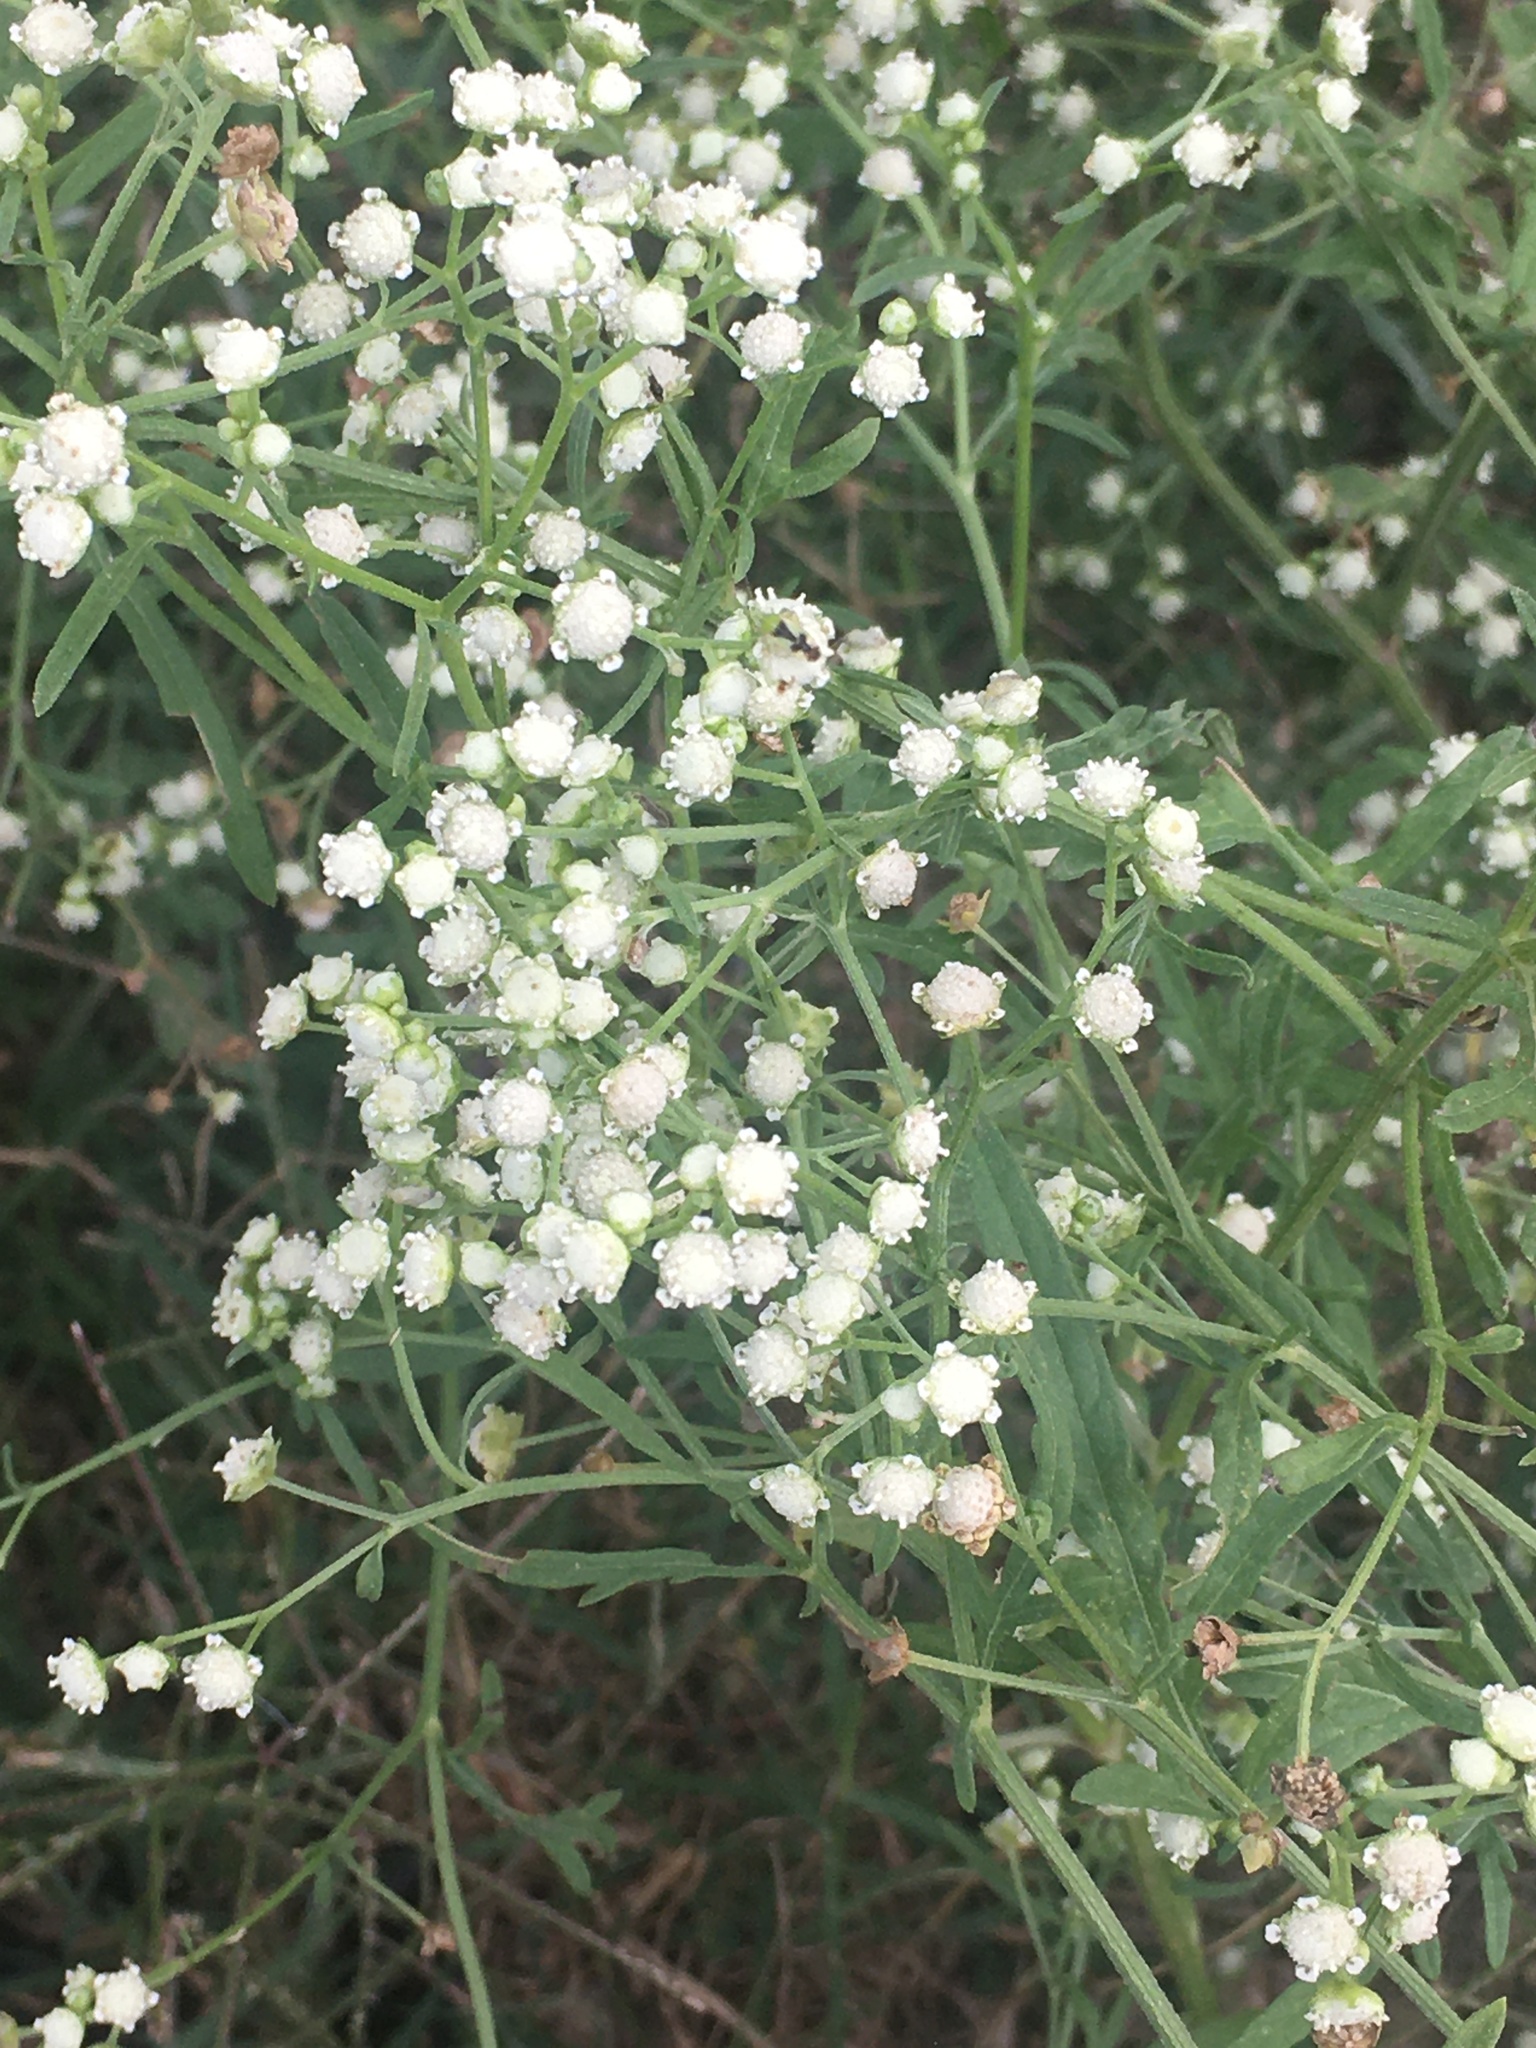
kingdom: Plantae
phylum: Tracheophyta
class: Magnoliopsida
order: Asterales
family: Asteraceae
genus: Parthenium
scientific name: Parthenium hysterophorus
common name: Santa maria feverfew
